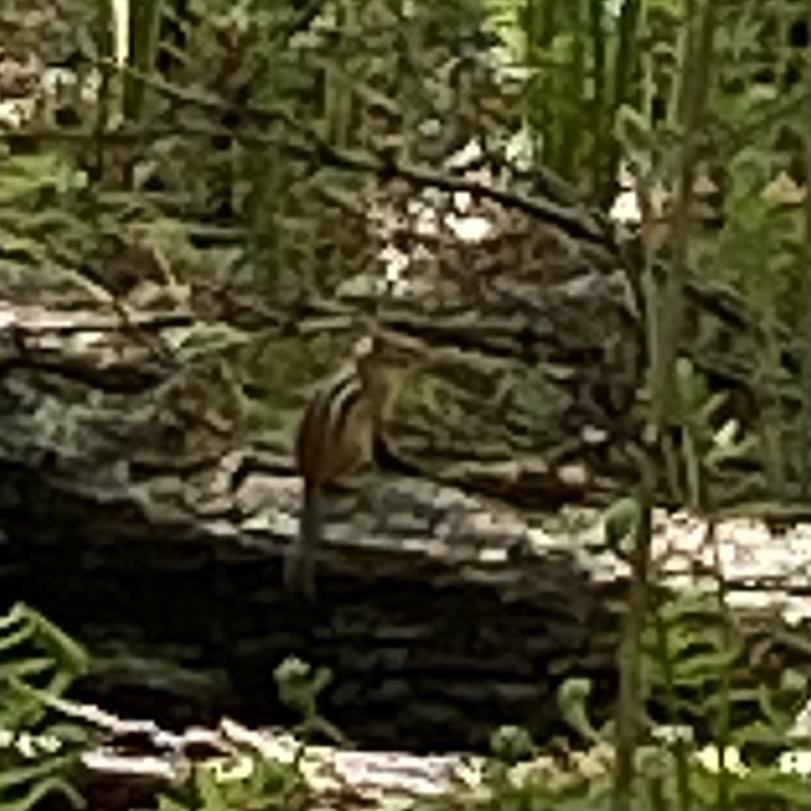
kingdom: Animalia
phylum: Chordata
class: Mammalia
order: Rodentia
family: Sciuridae
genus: Tamias
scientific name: Tamias striatus
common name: Eastern chipmunk
